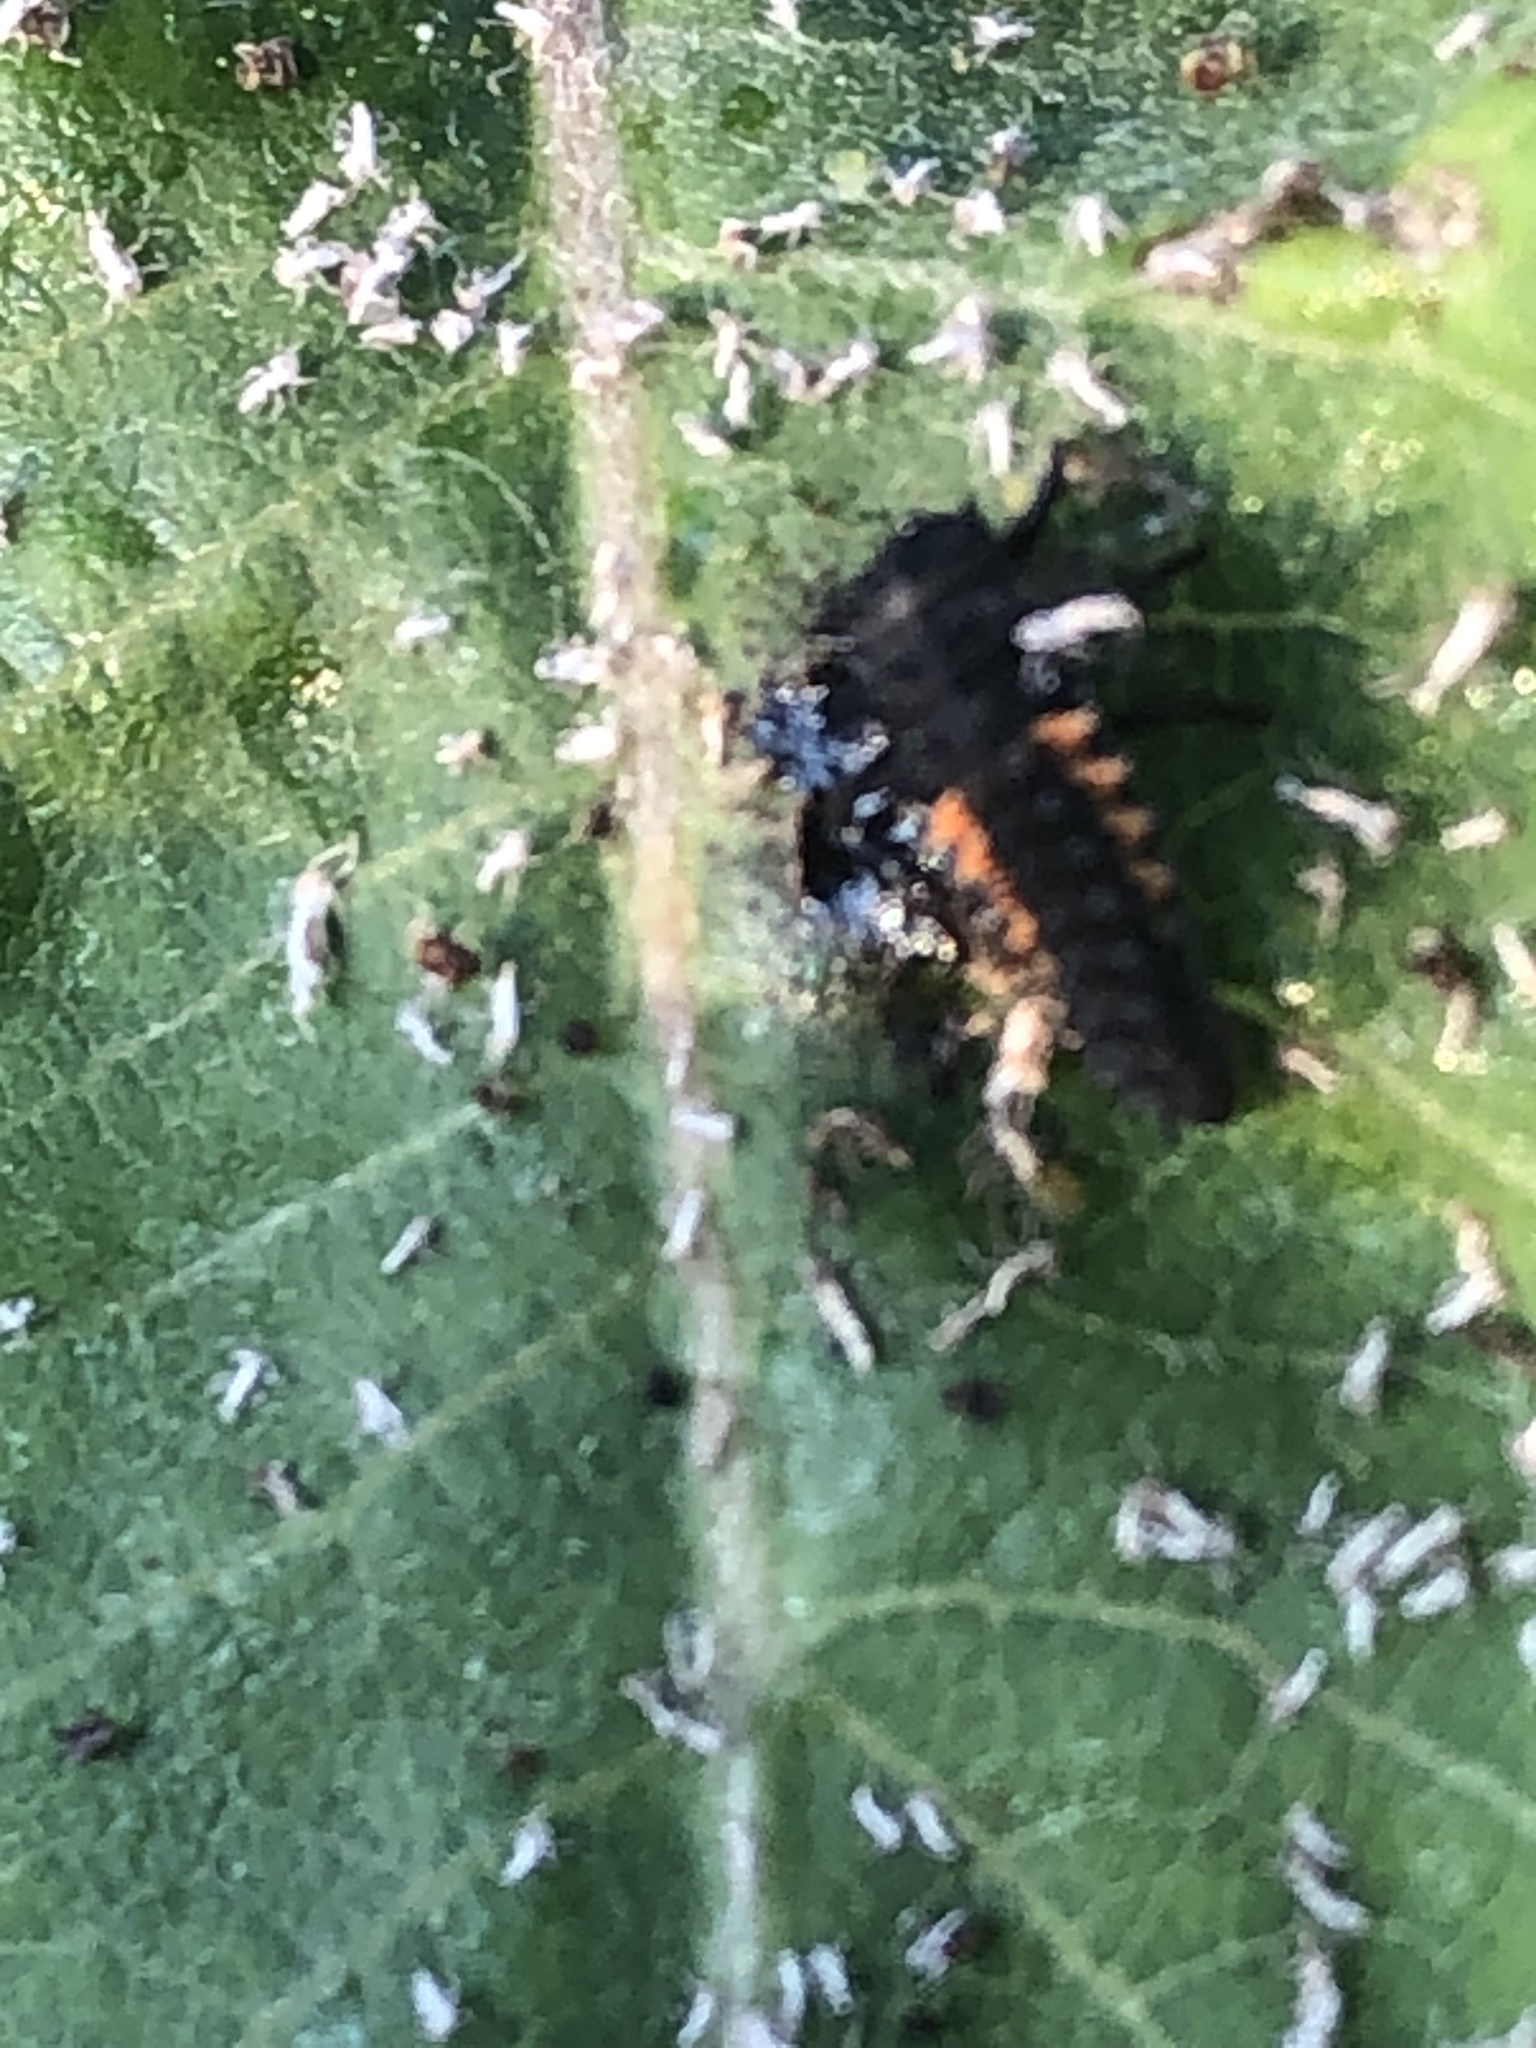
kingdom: Animalia
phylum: Arthropoda
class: Insecta
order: Coleoptera
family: Coccinellidae
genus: Harmonia
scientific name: Harmonia axyridis
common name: Harlequin ladybird
